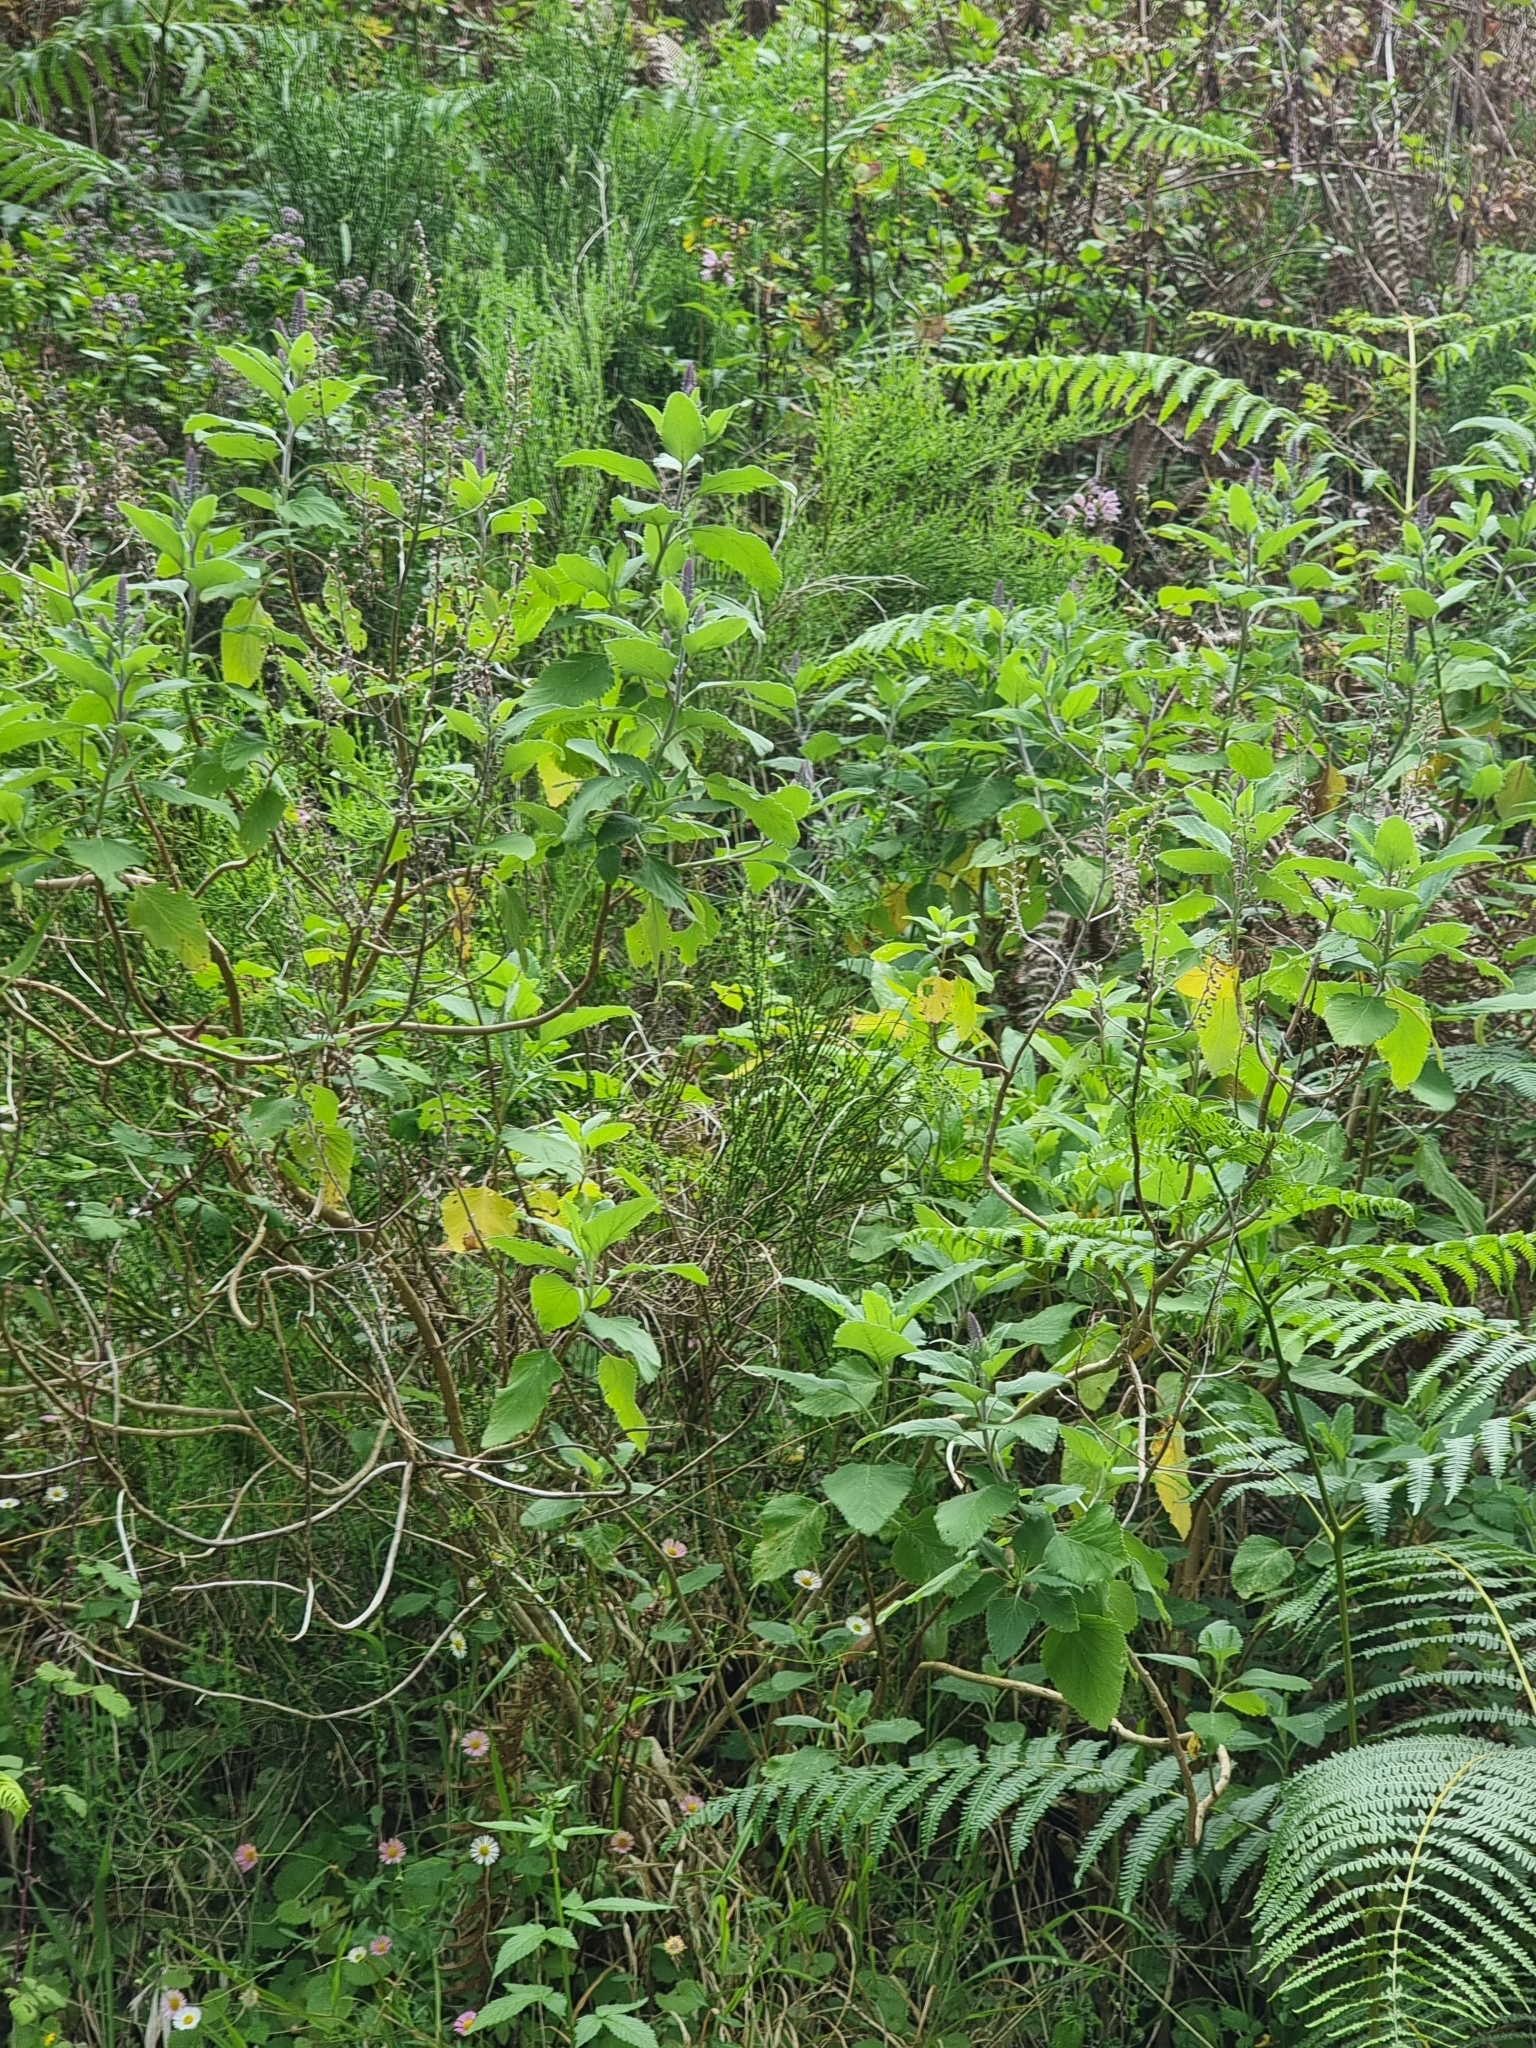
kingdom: Plantae
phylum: Tracheophyta
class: Magnoliopsida
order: Lamiales
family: Lamiaceae
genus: Teucrium
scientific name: Teucrium betonicum
